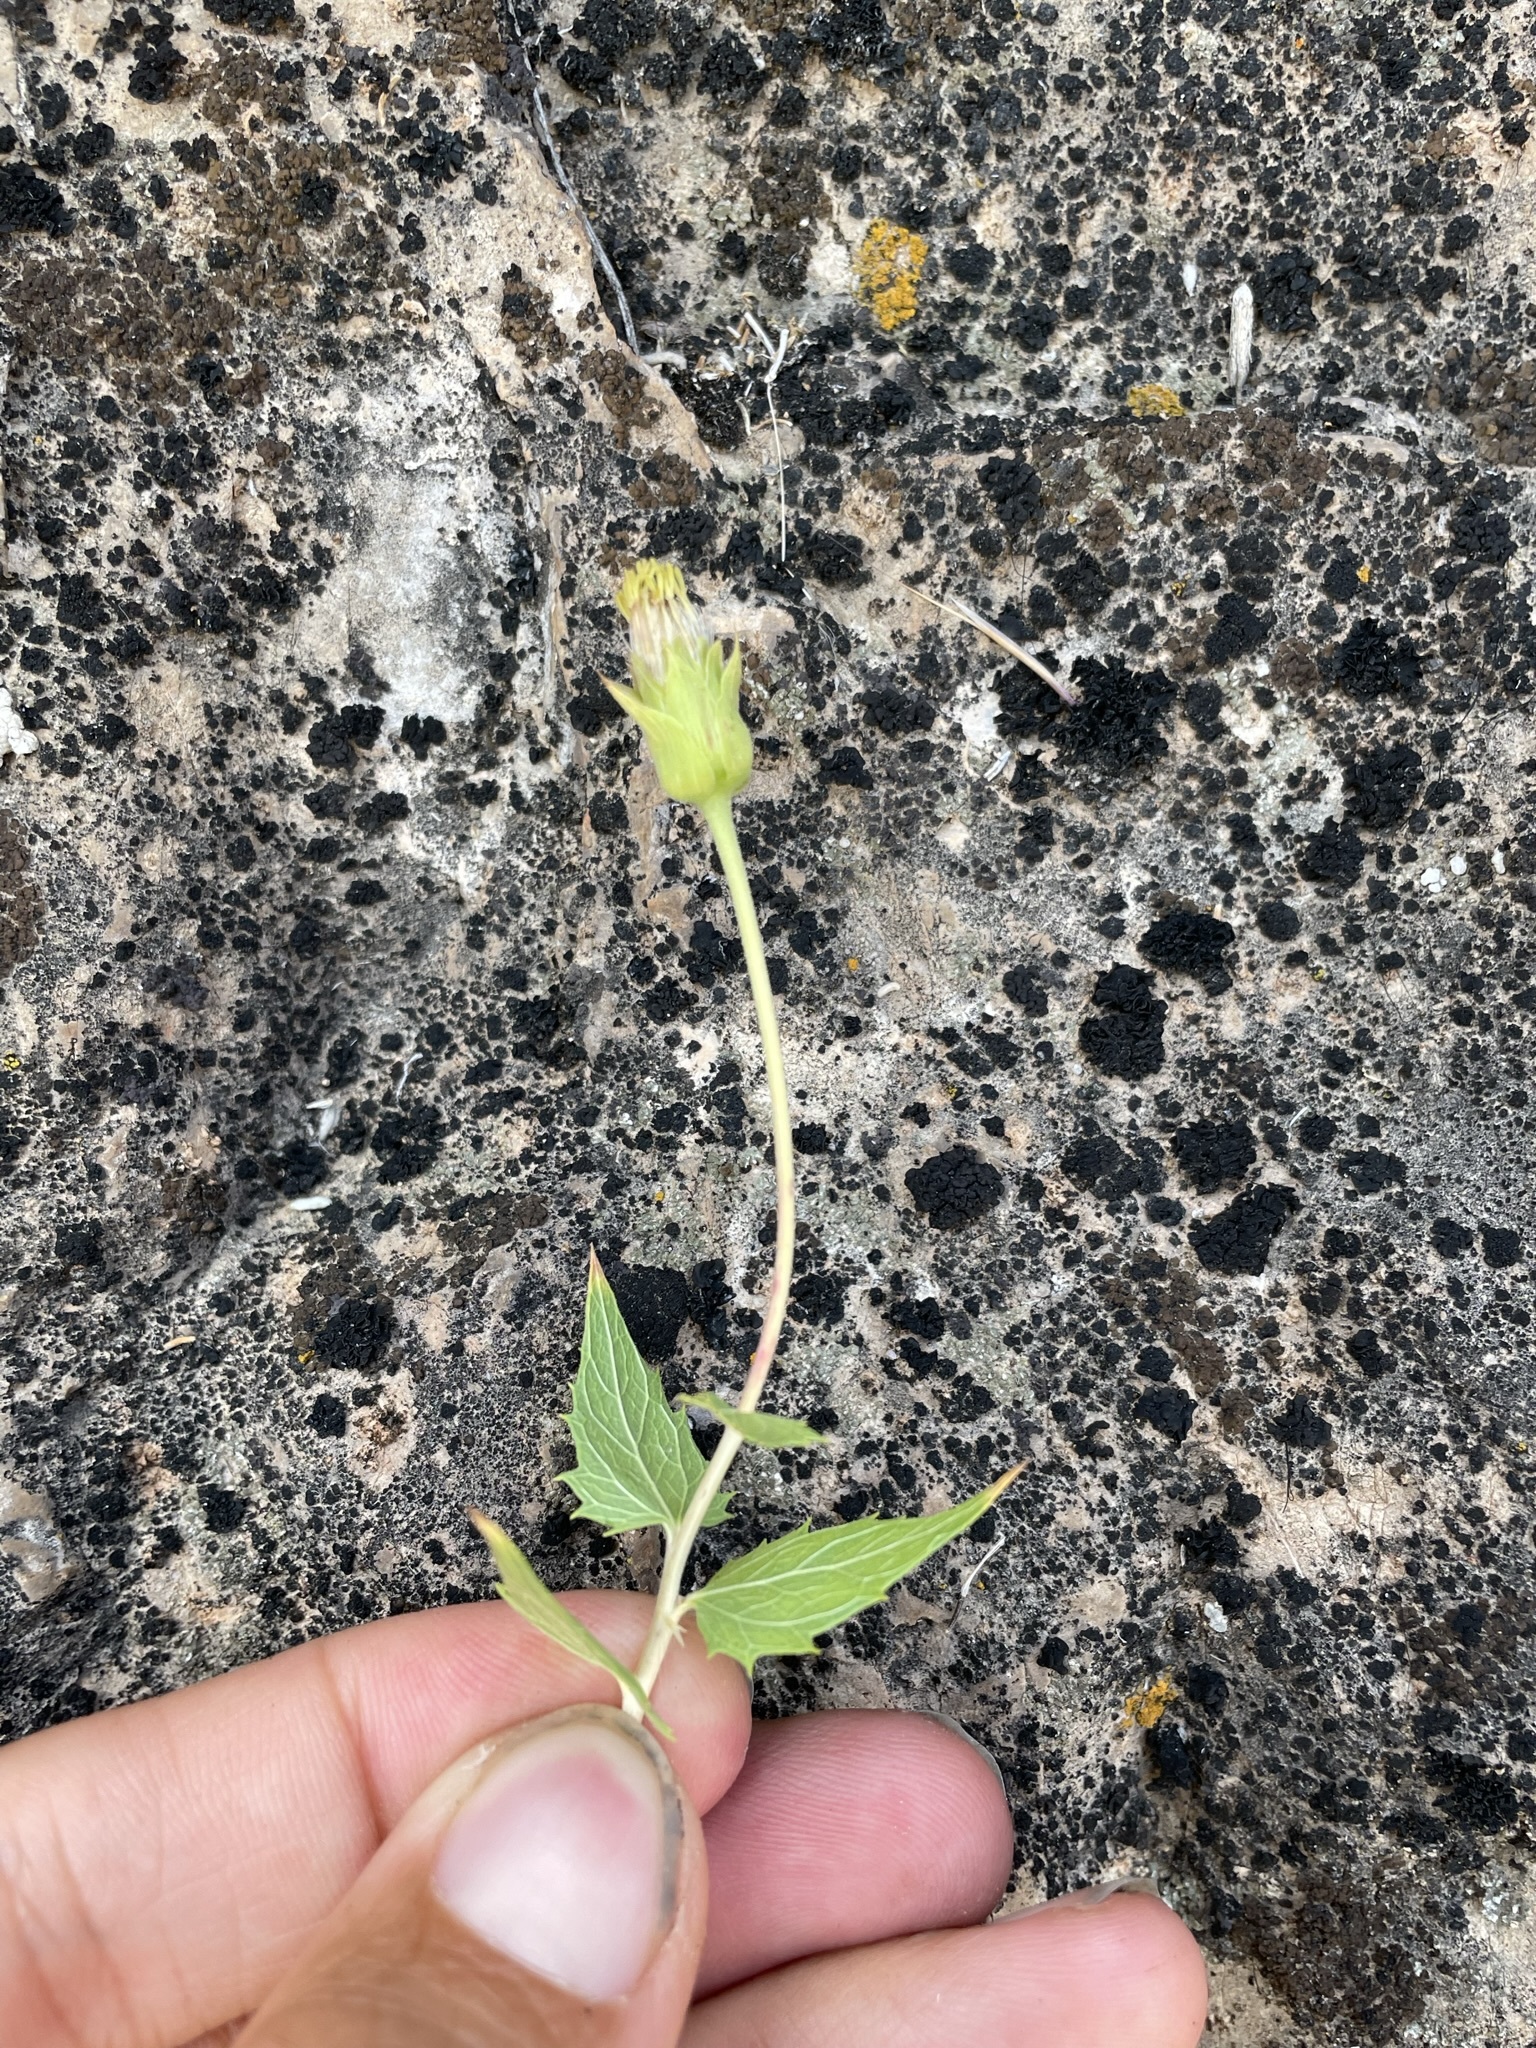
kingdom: Plantae
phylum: Tracheophyta
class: Magnoliopsida
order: Asterales
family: Asteraceae
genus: Brickellia
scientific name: Brickellia atractyloides
